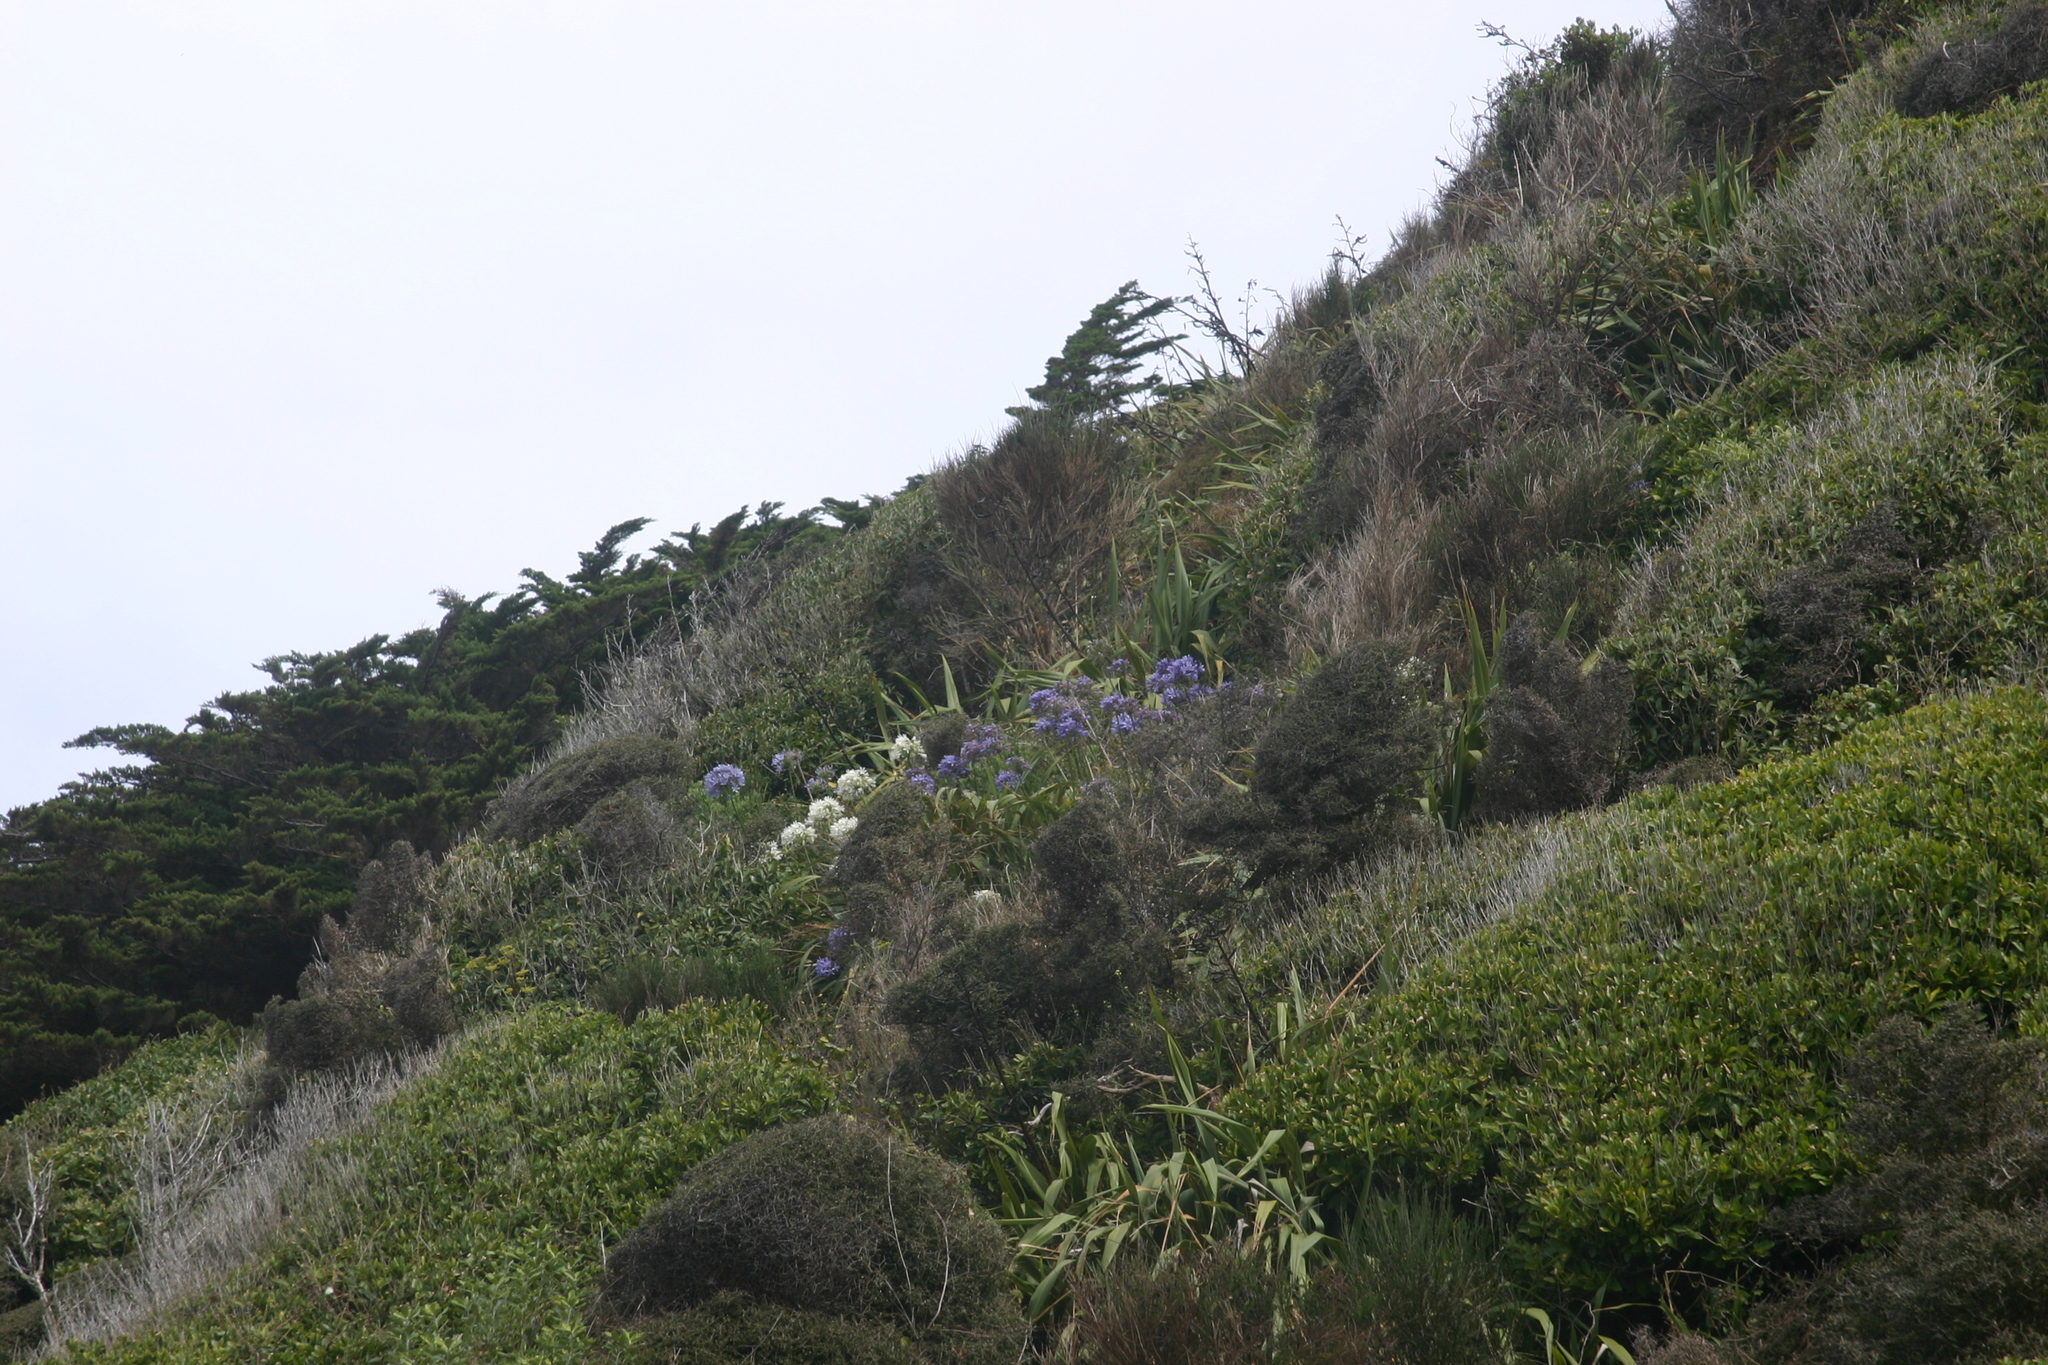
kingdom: Plantae
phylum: Tracheophyta
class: Liliopsida
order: Asparagales
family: Amaryllidaceae
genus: Agapanthus
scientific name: Agapanthus praecox
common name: African-lily
